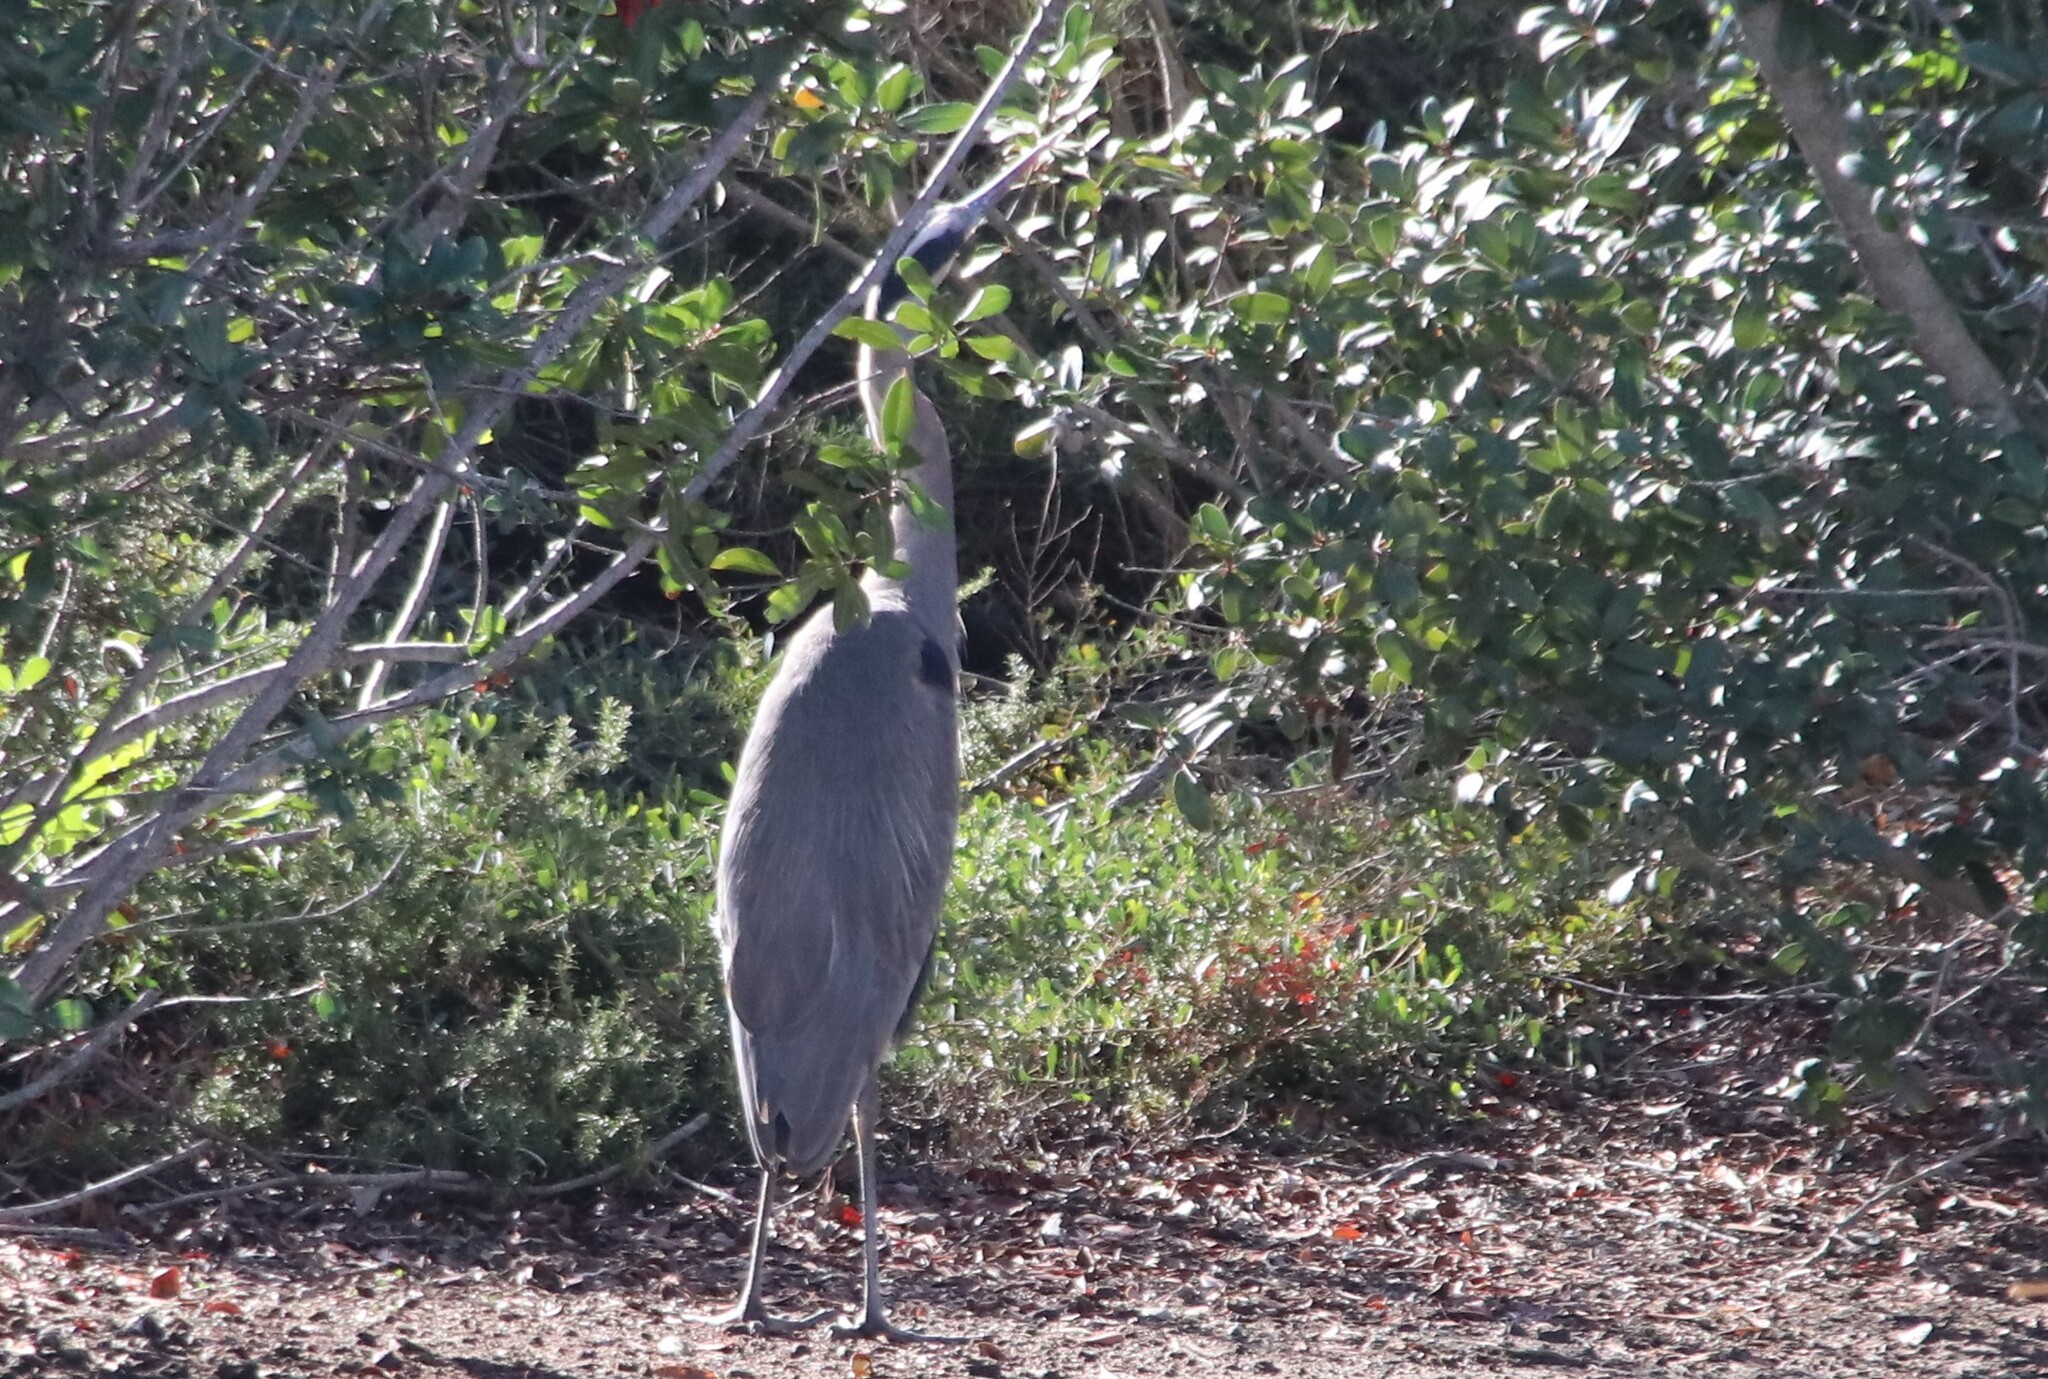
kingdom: Animalia
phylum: Chordata
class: Aves
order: Pelecaniformes
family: Ardeidae
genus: Ardea
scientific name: Ardea herodias
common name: Great blue heron
